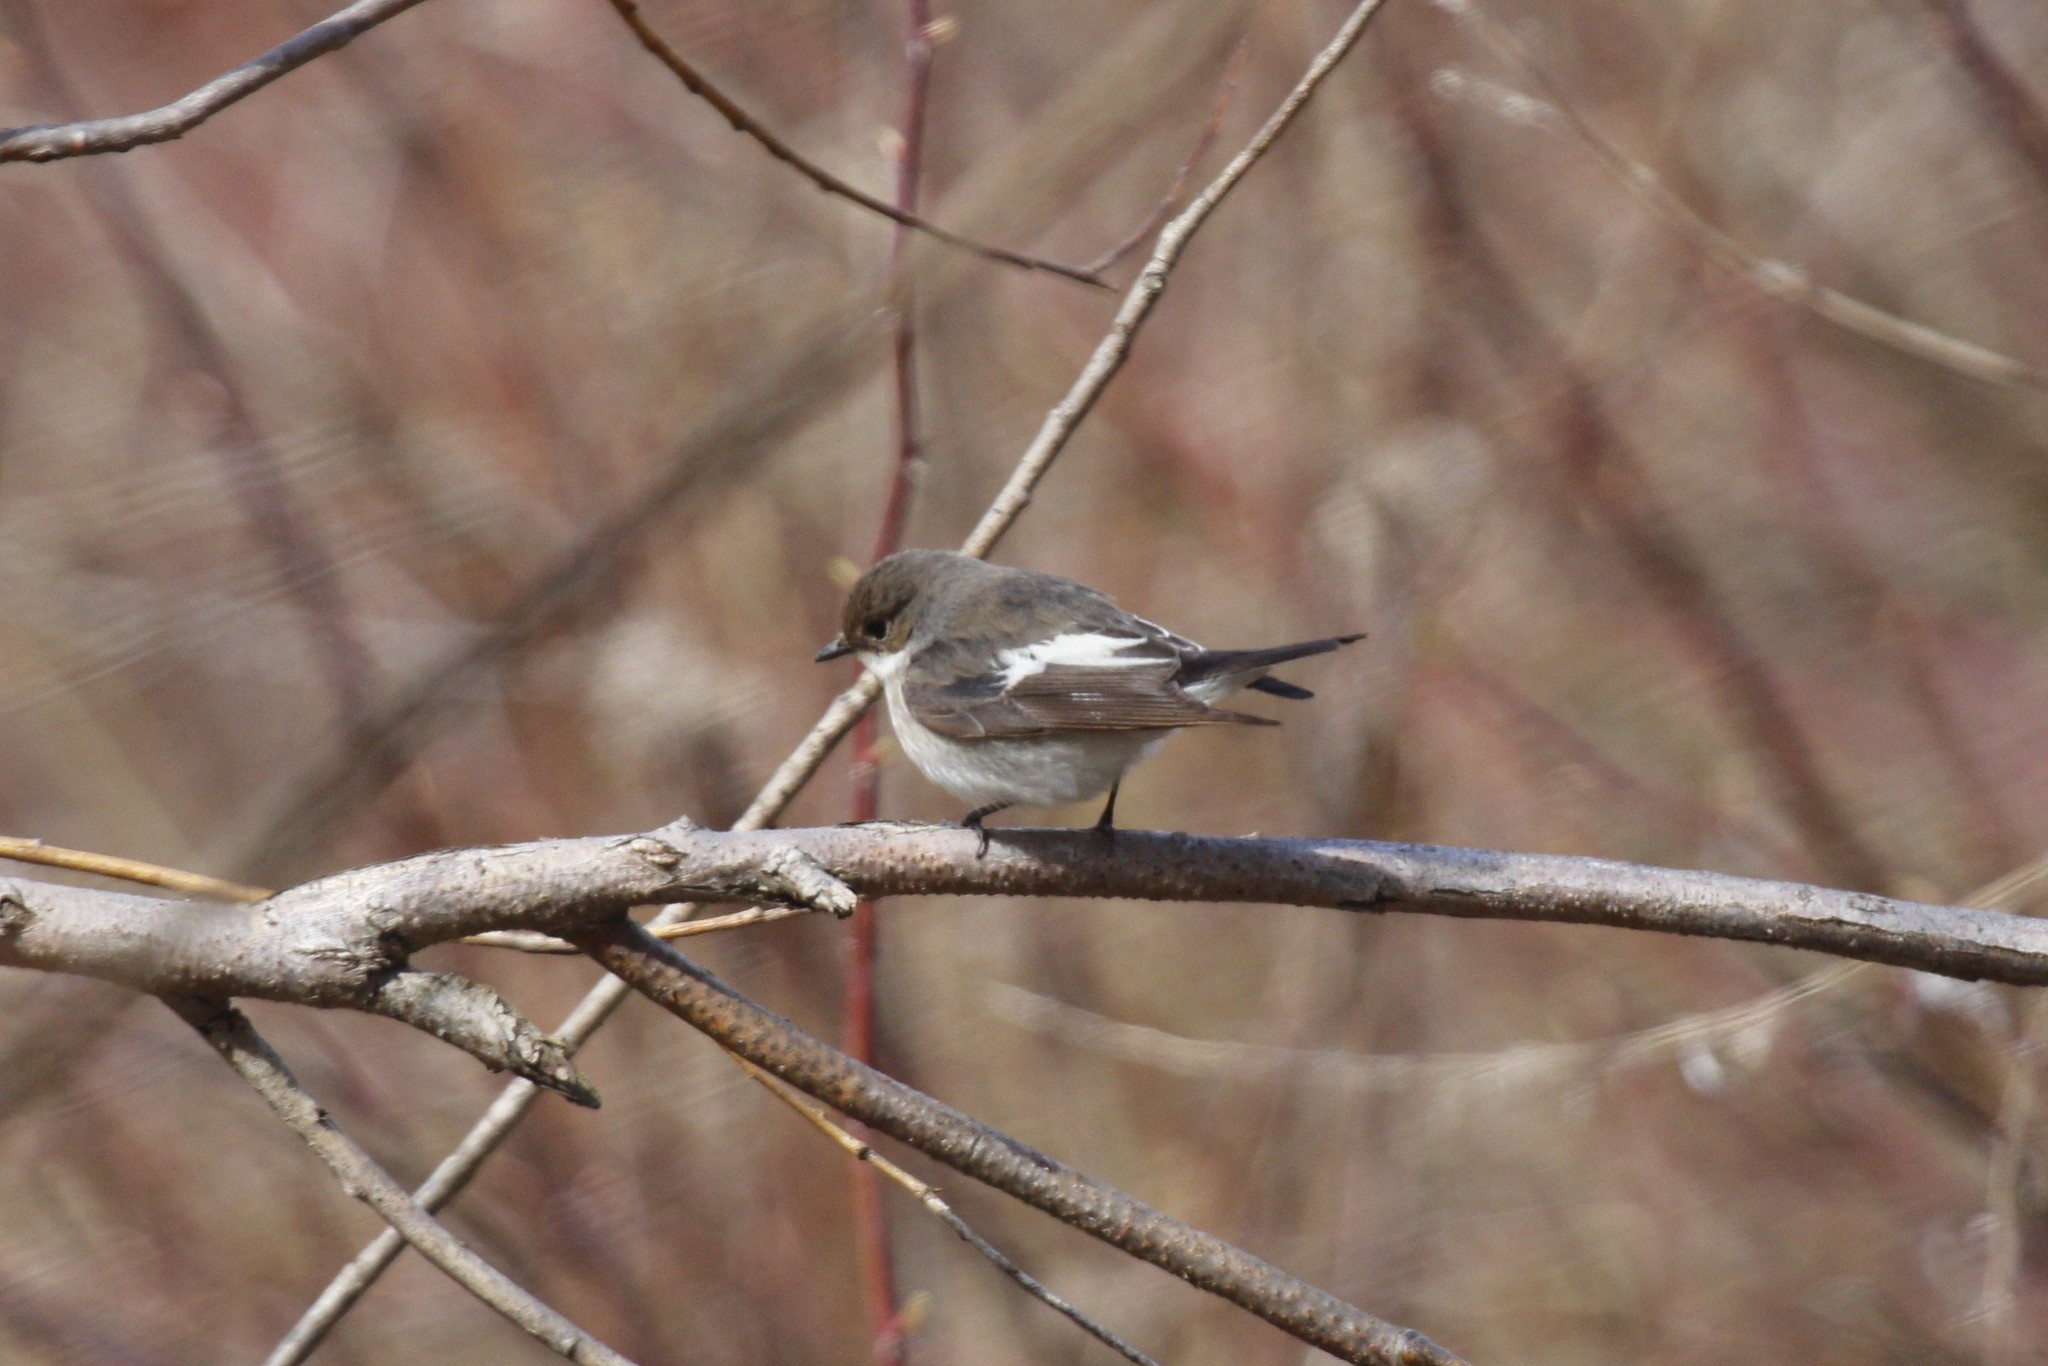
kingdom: Animalia
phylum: Chordata
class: Aves
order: Passeriformes
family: Muscicapidae
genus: Ficedula
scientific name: Ficedula hypoleuca
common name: European pied flycatcher
